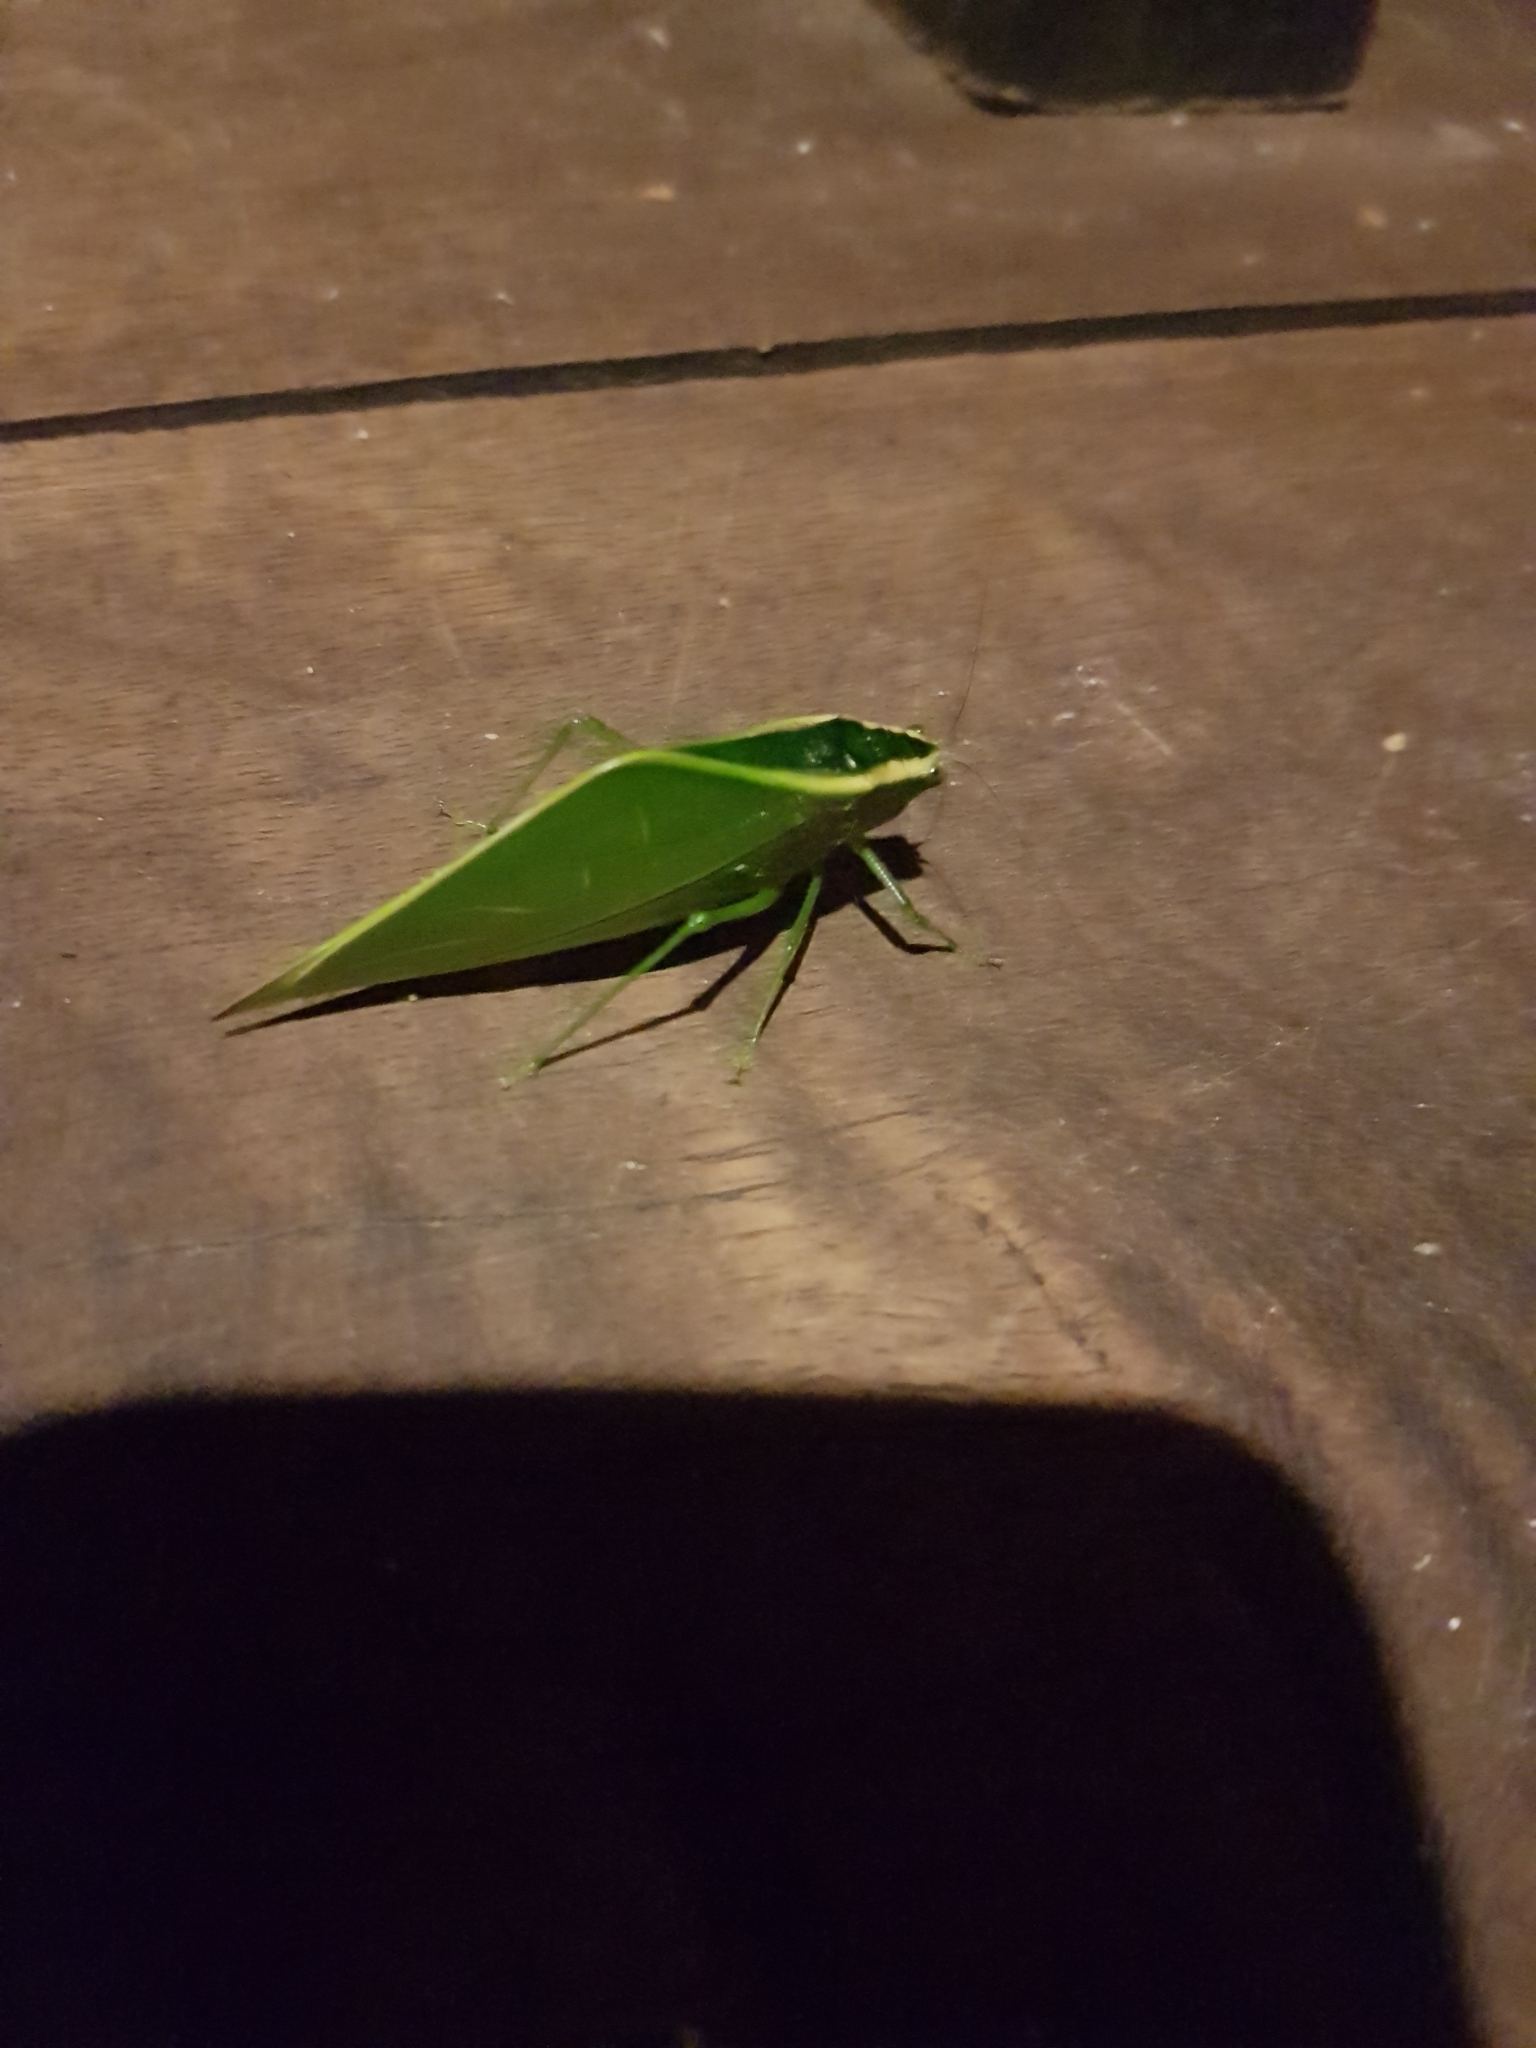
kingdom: Animalia
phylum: Arthropoda
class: Insecta
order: Orthoptera
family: Tettigoniidae
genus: Acropsis
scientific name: Acropsis tectiformis
